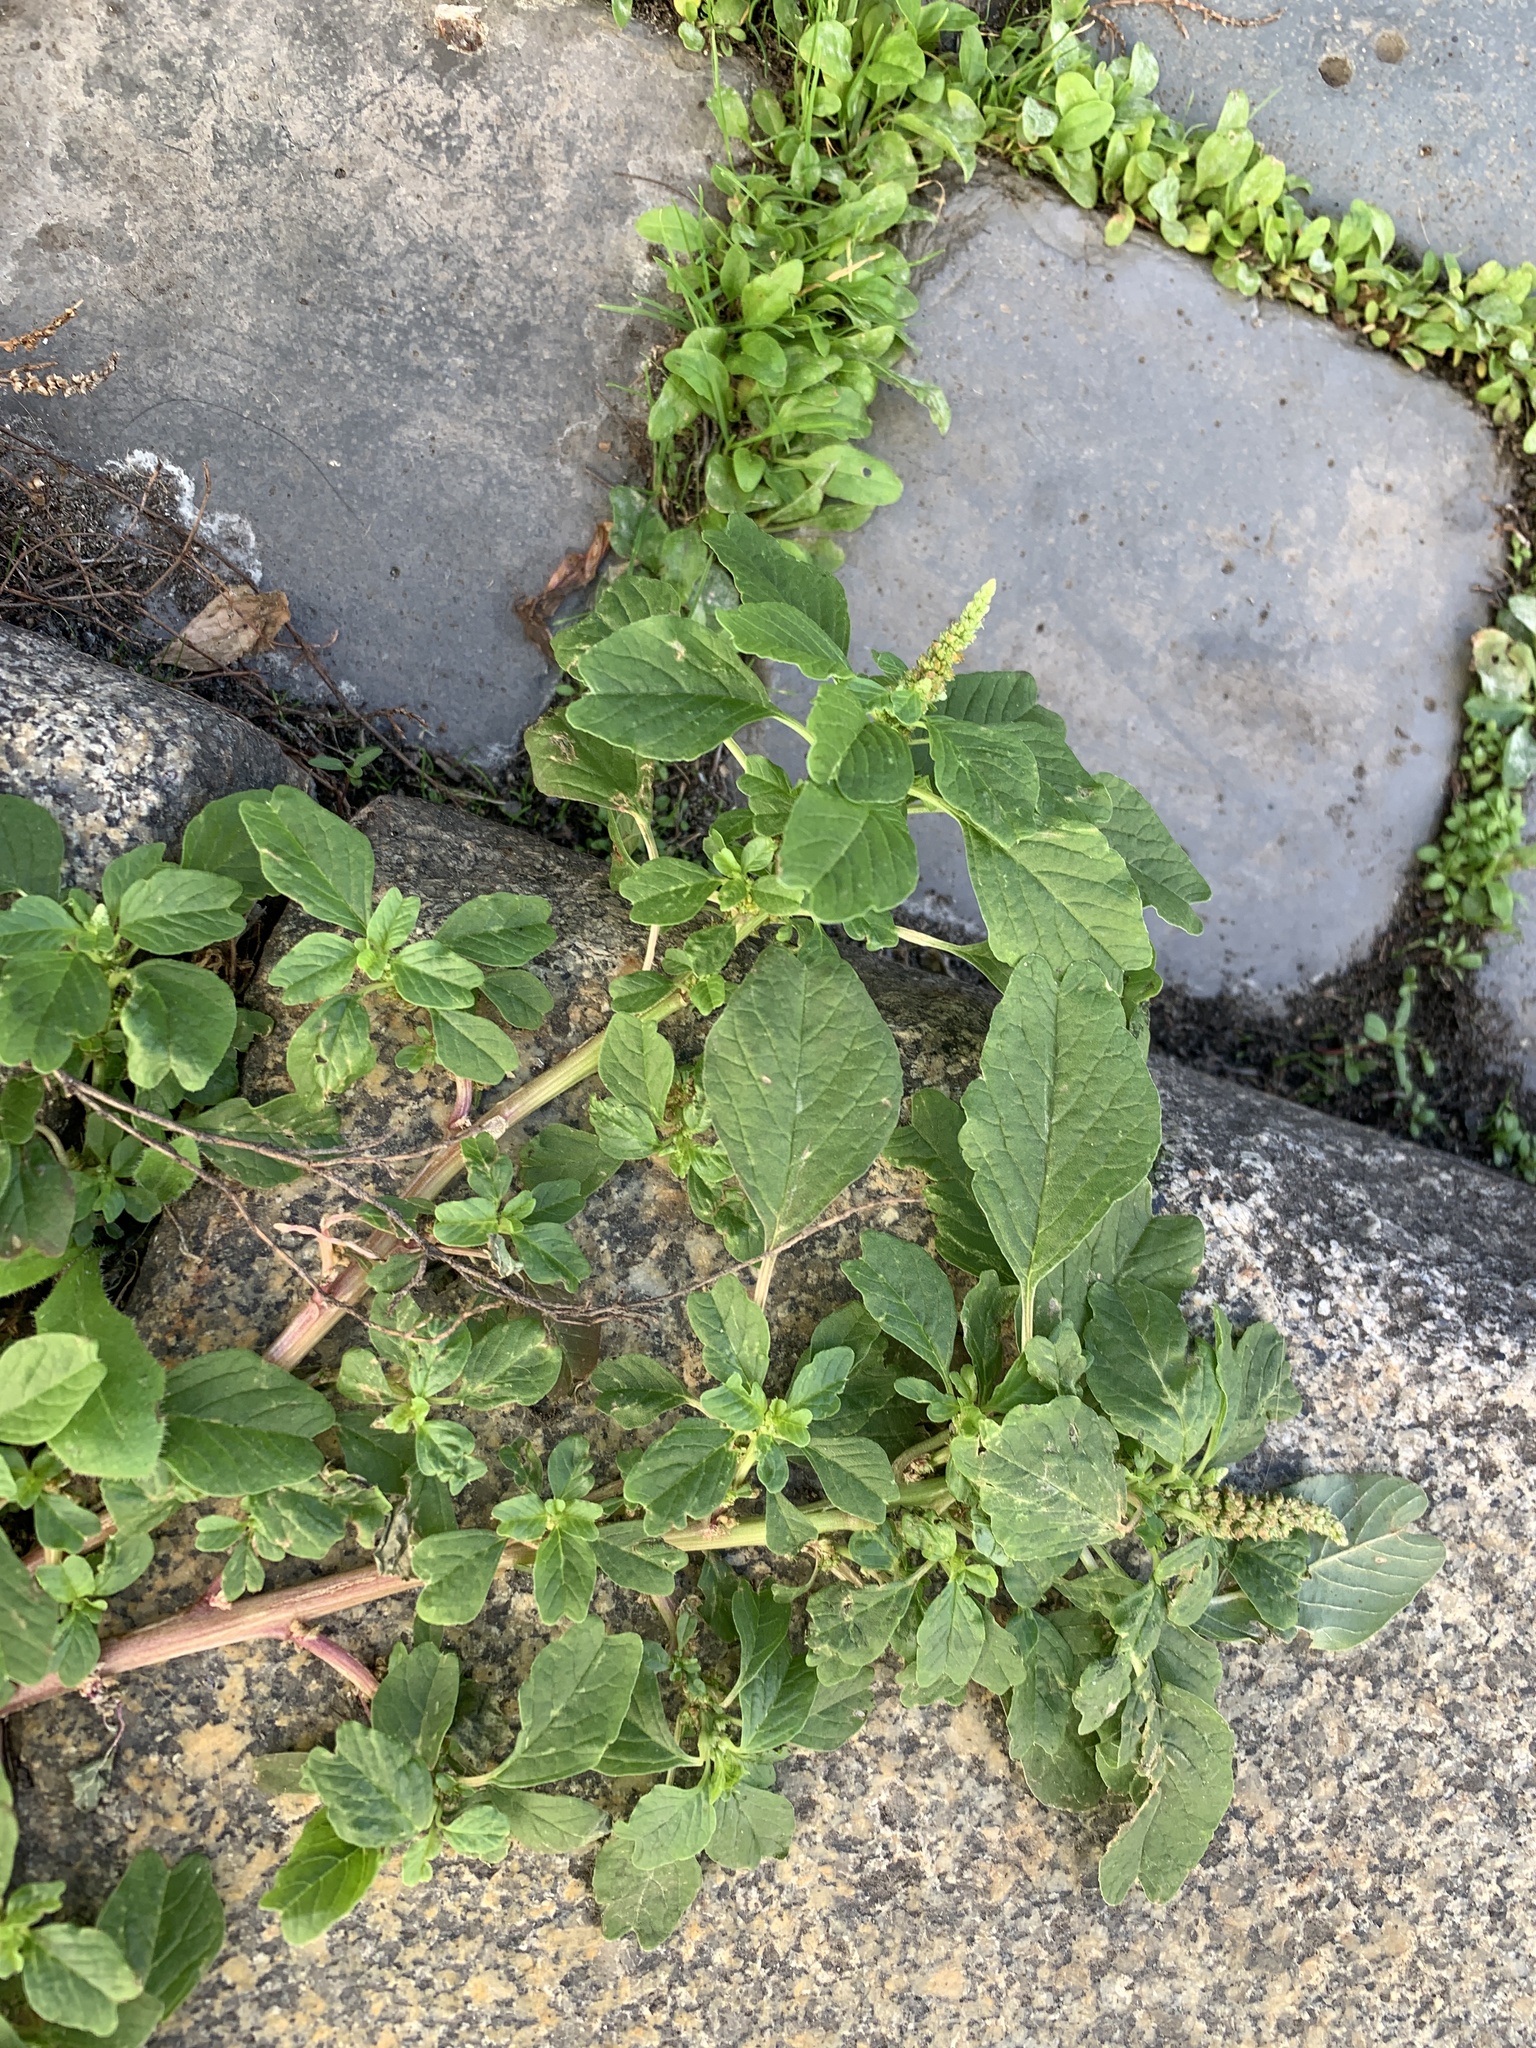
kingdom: Plantae
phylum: Tracheophyta
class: Magnoliopsida
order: Caryophyllales
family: Amaranthaceae
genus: Amaranthus
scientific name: Amaranthus blitum
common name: Purple amaranth
